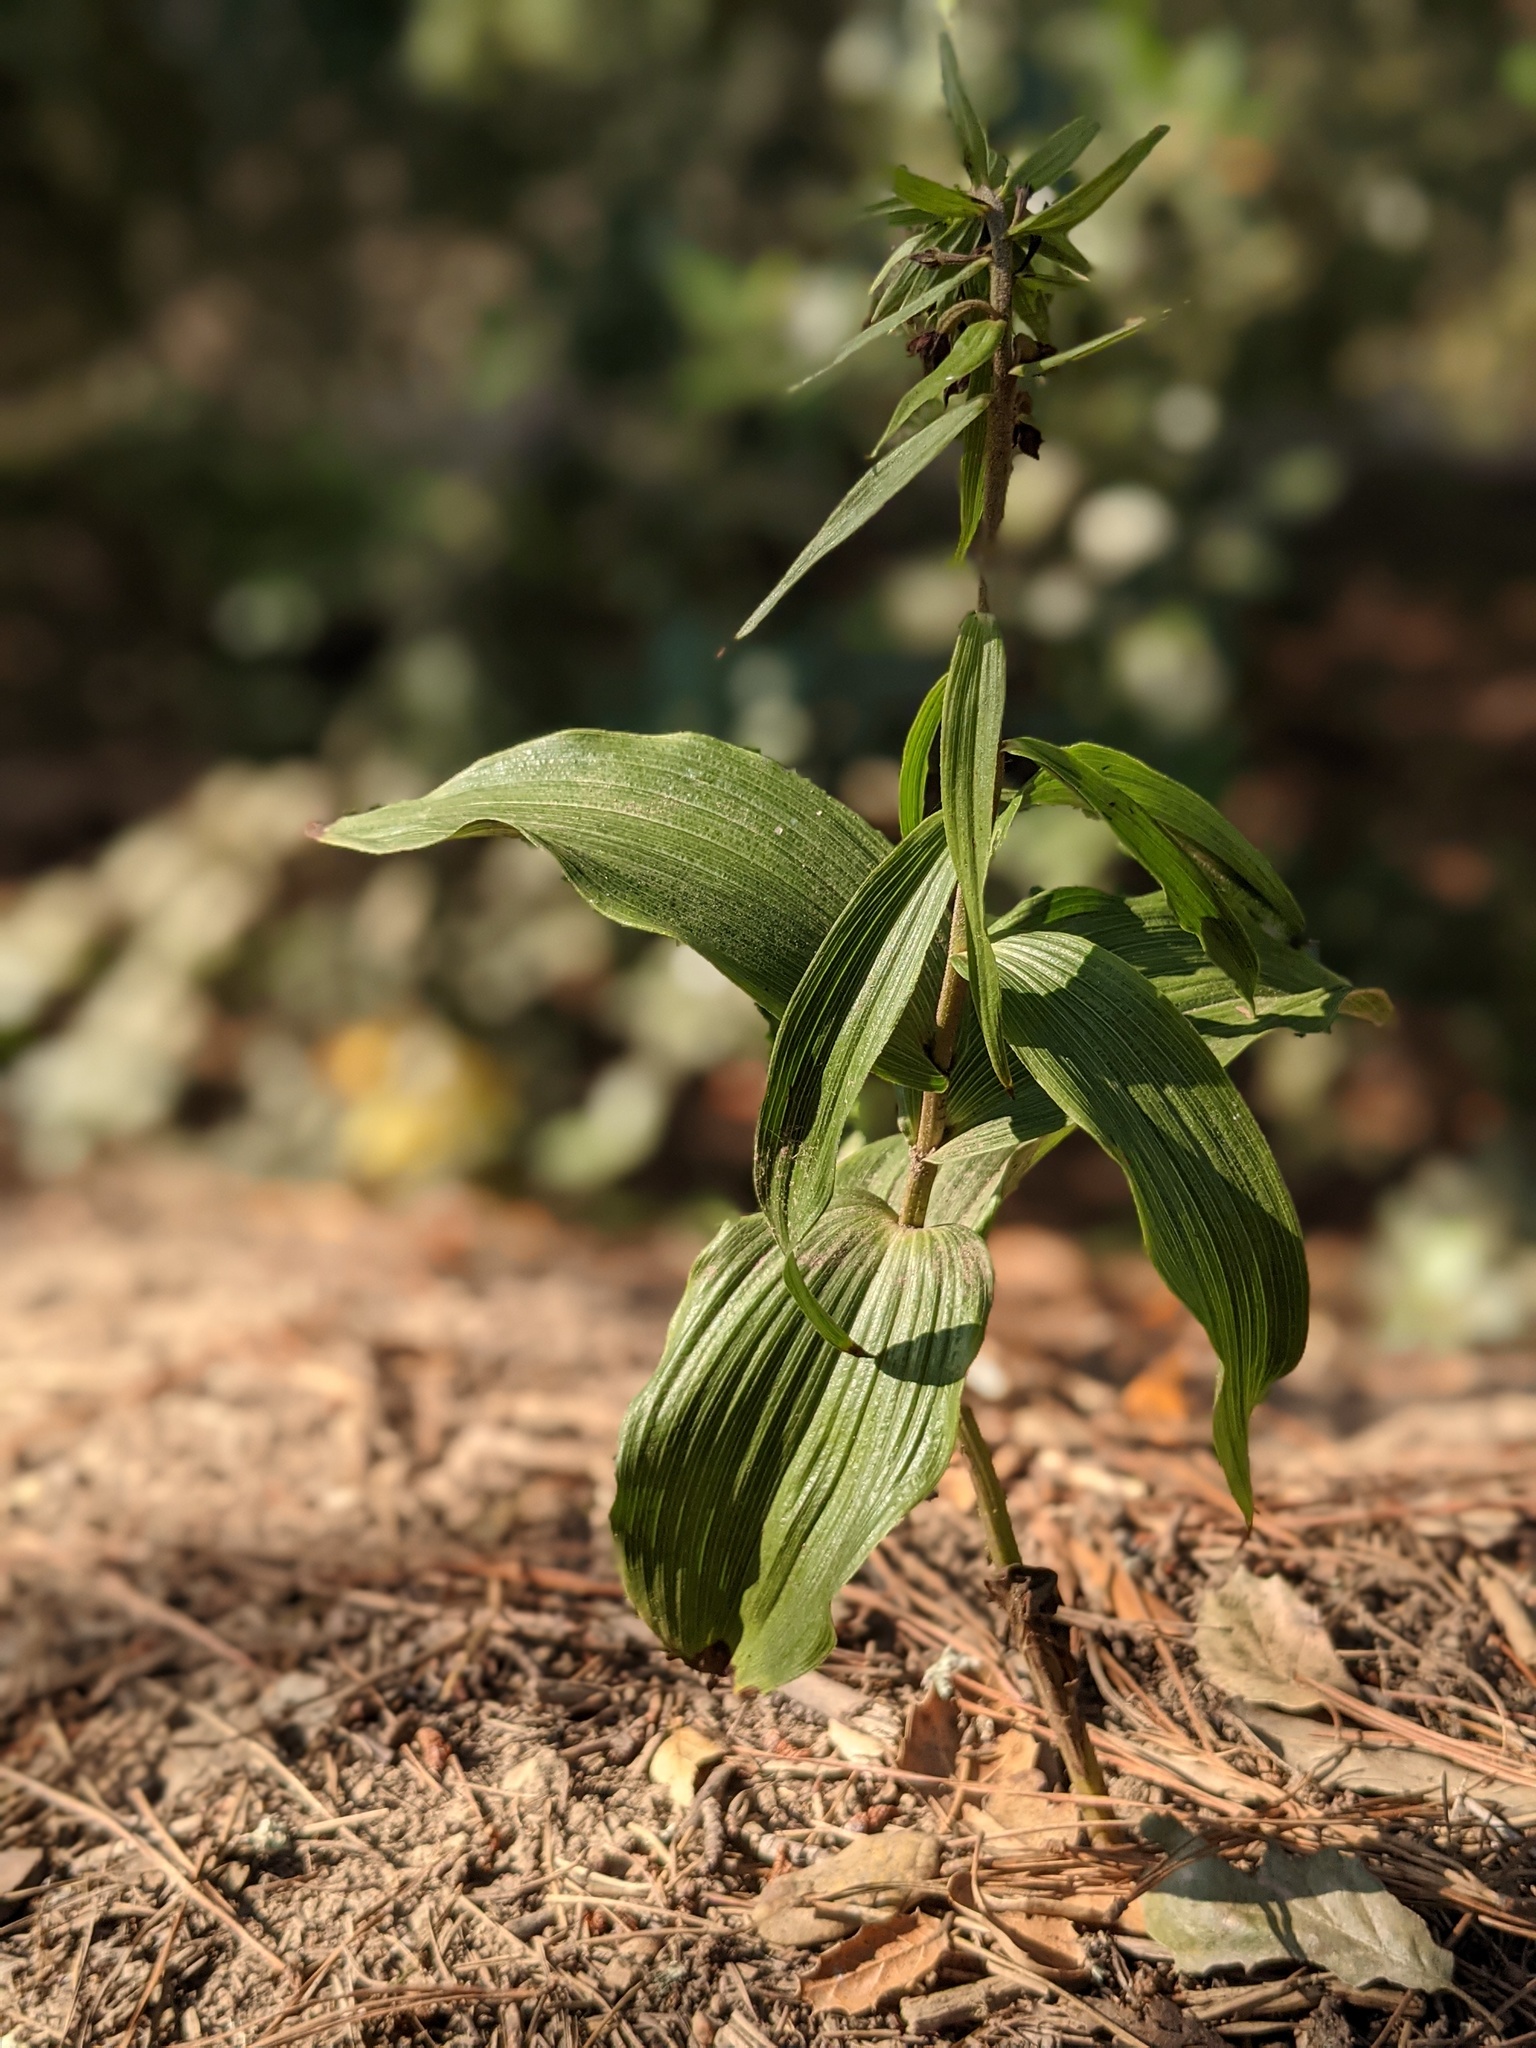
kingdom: Plantae
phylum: Tracheophyta
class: Liliopsida
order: Asparagales
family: Orchidaceae
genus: Epipactis
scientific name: Epipactis helleborine
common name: Broad-leaved helleborine
